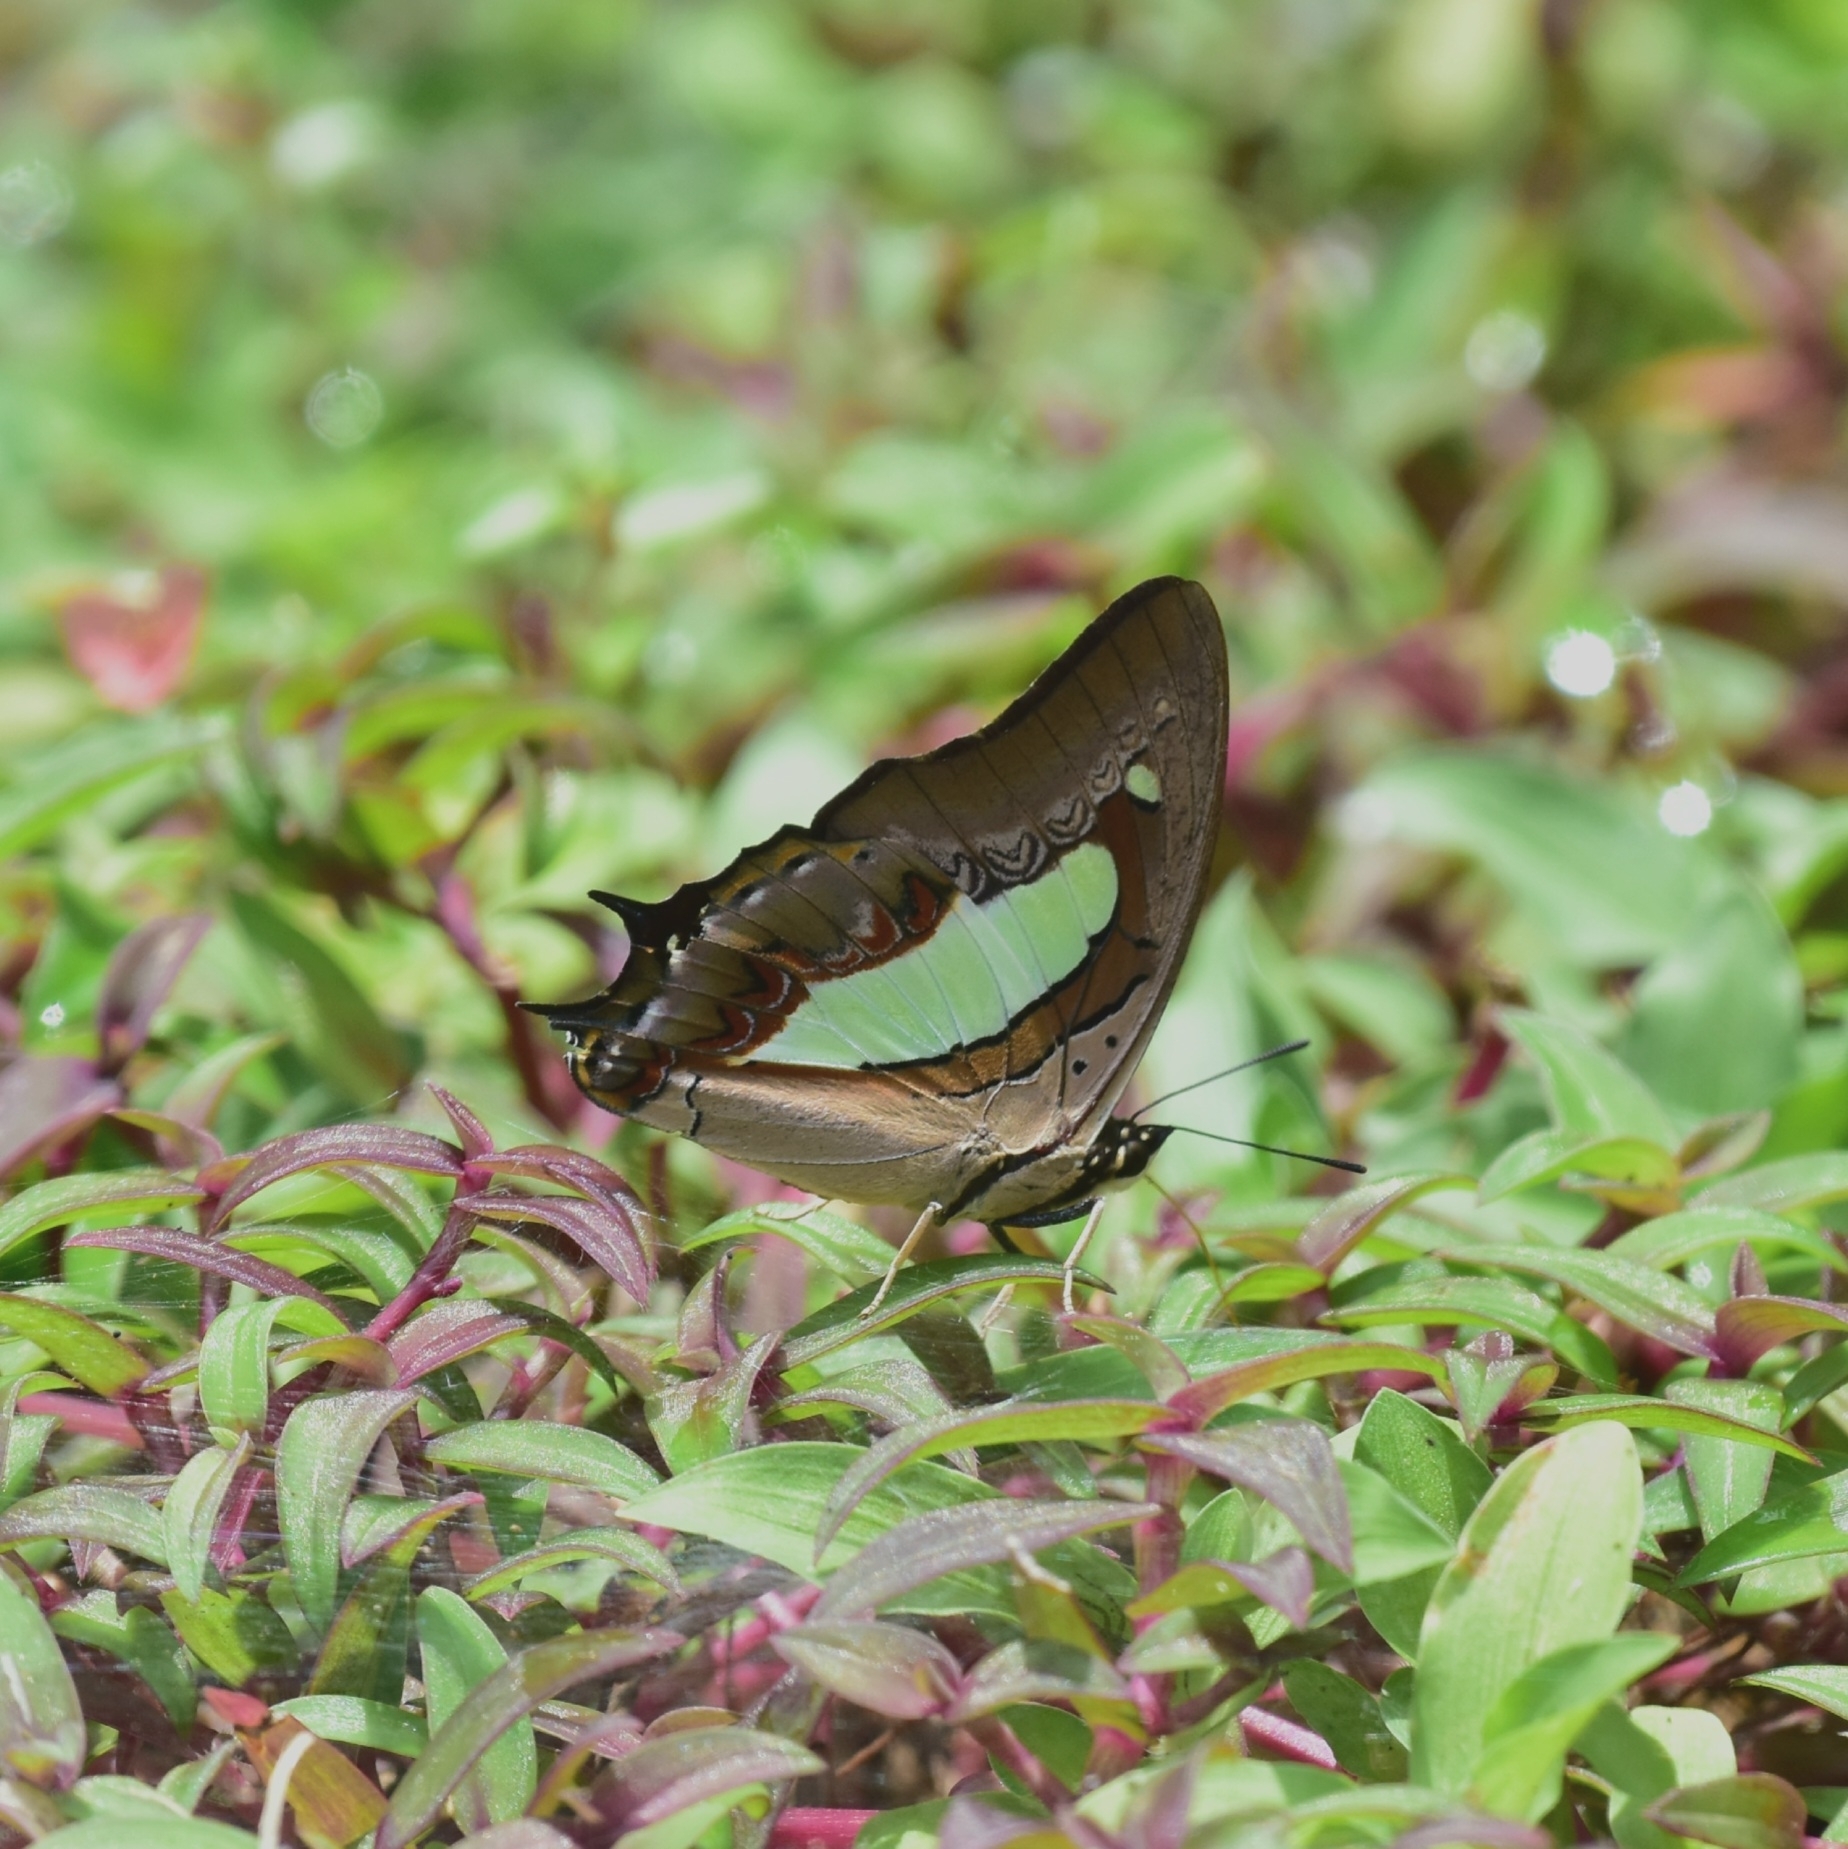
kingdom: Animalia
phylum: Arthropoda
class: Insecta
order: Lepidoptera
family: Nymphalidae
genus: Polyura
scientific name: Polyura
